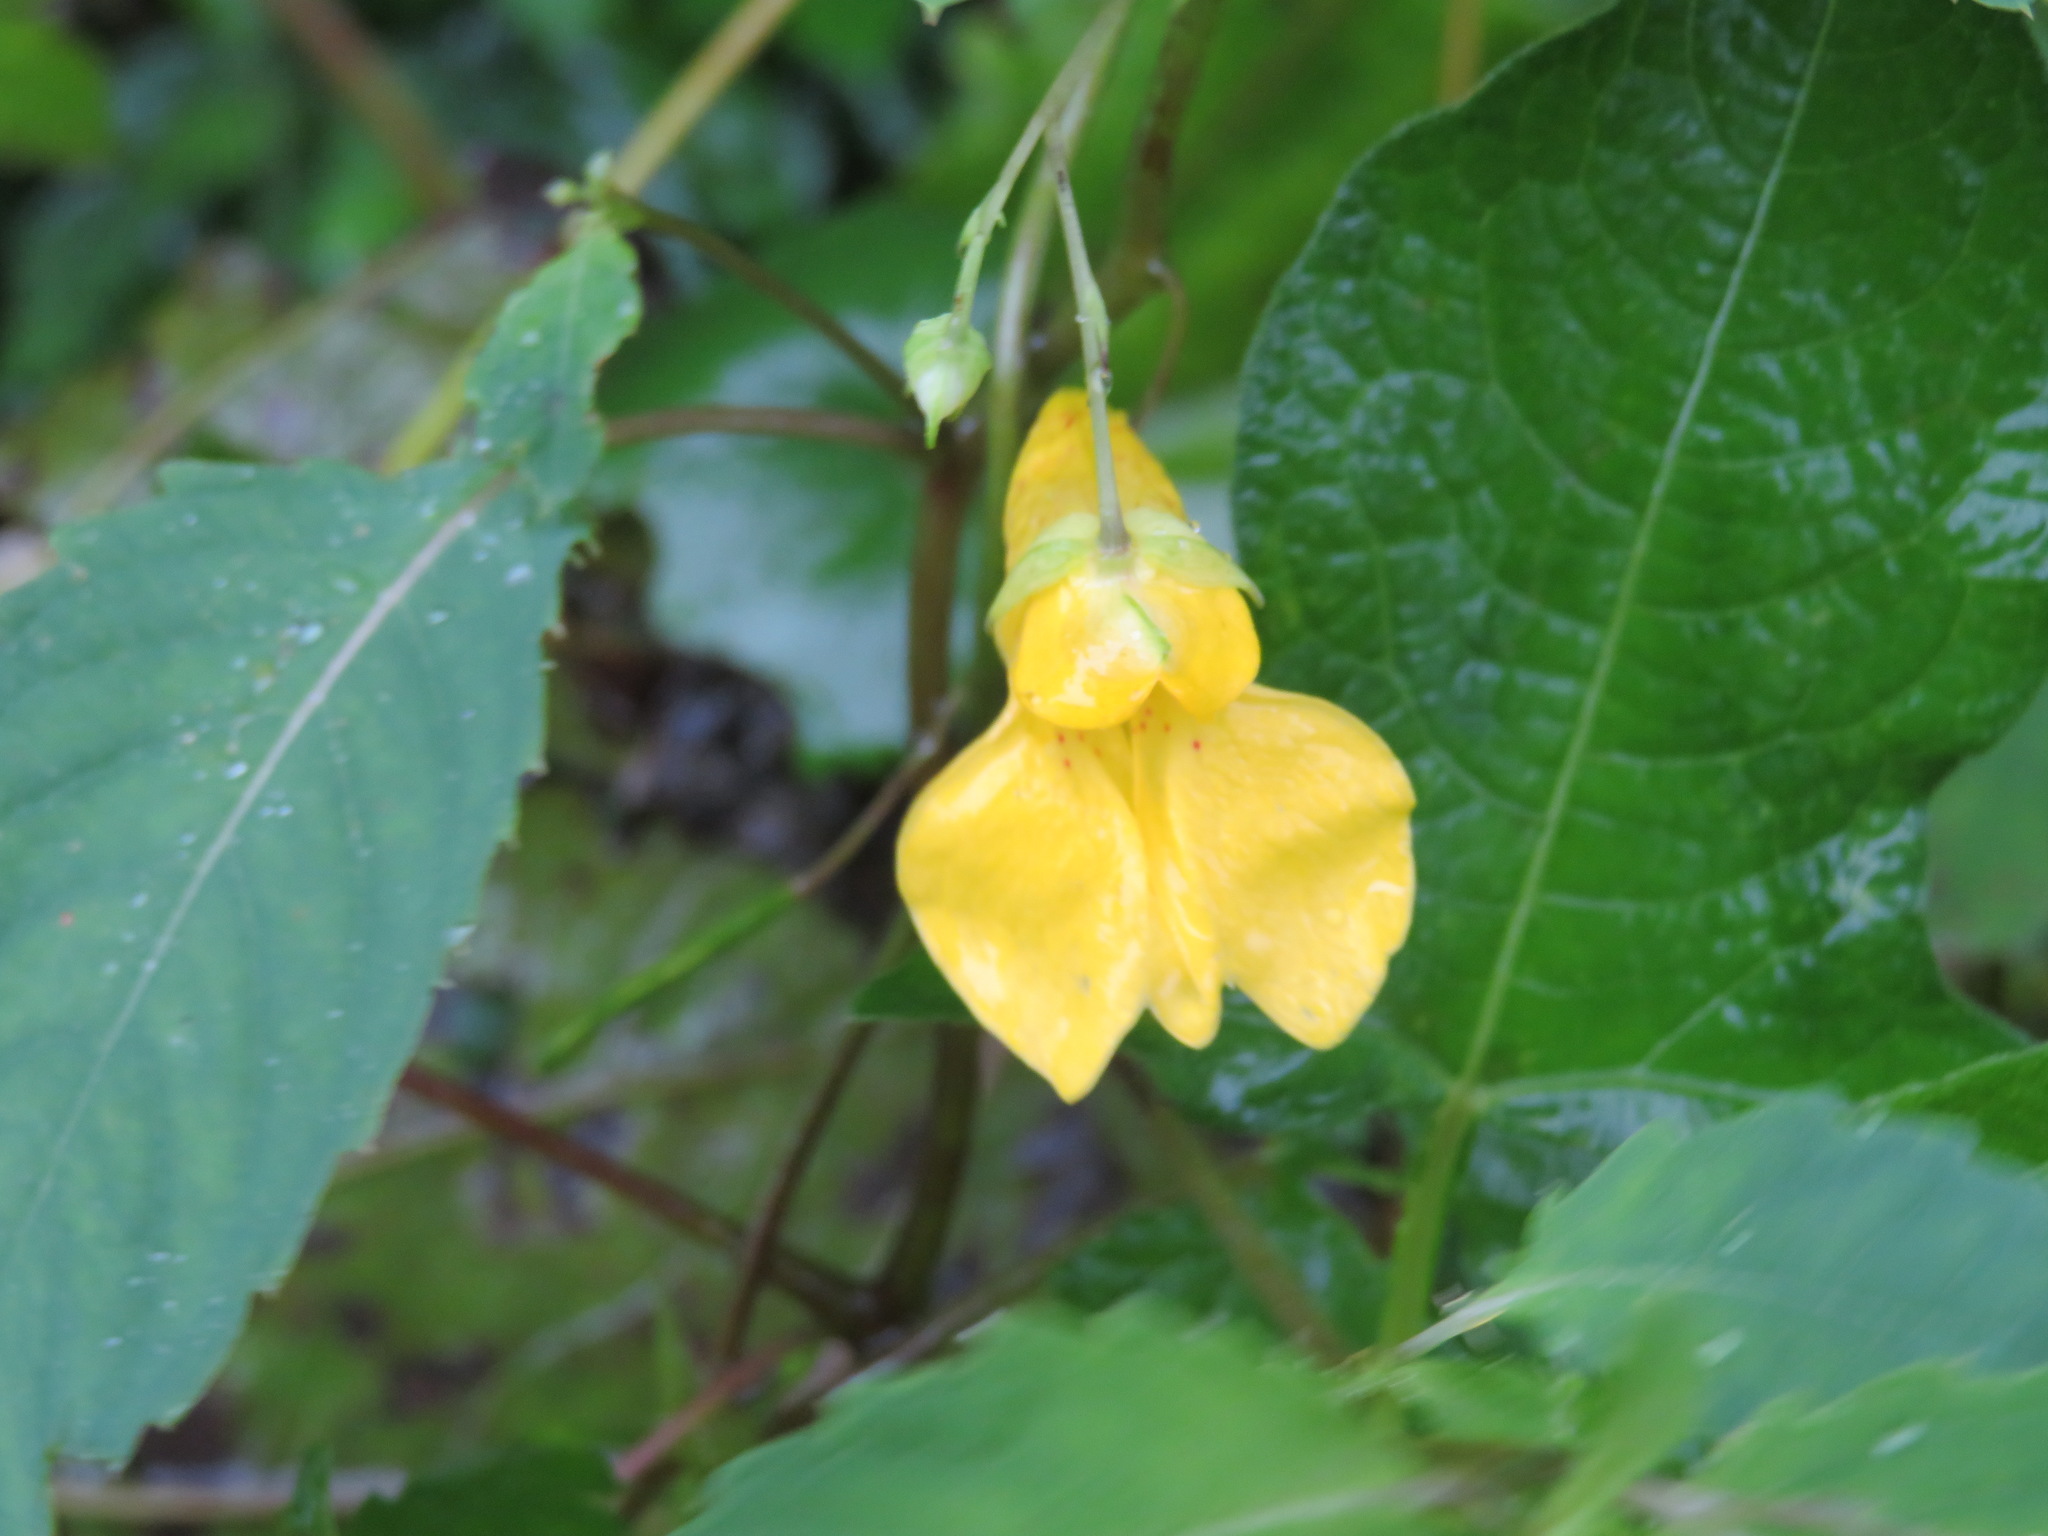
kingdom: Plantae
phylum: Tracheophyta
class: Magnoliopsida
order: Ericales
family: Balsaminaceae
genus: Impatiens
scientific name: Impatiens noli-tangere
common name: Touch-me-not balsam
